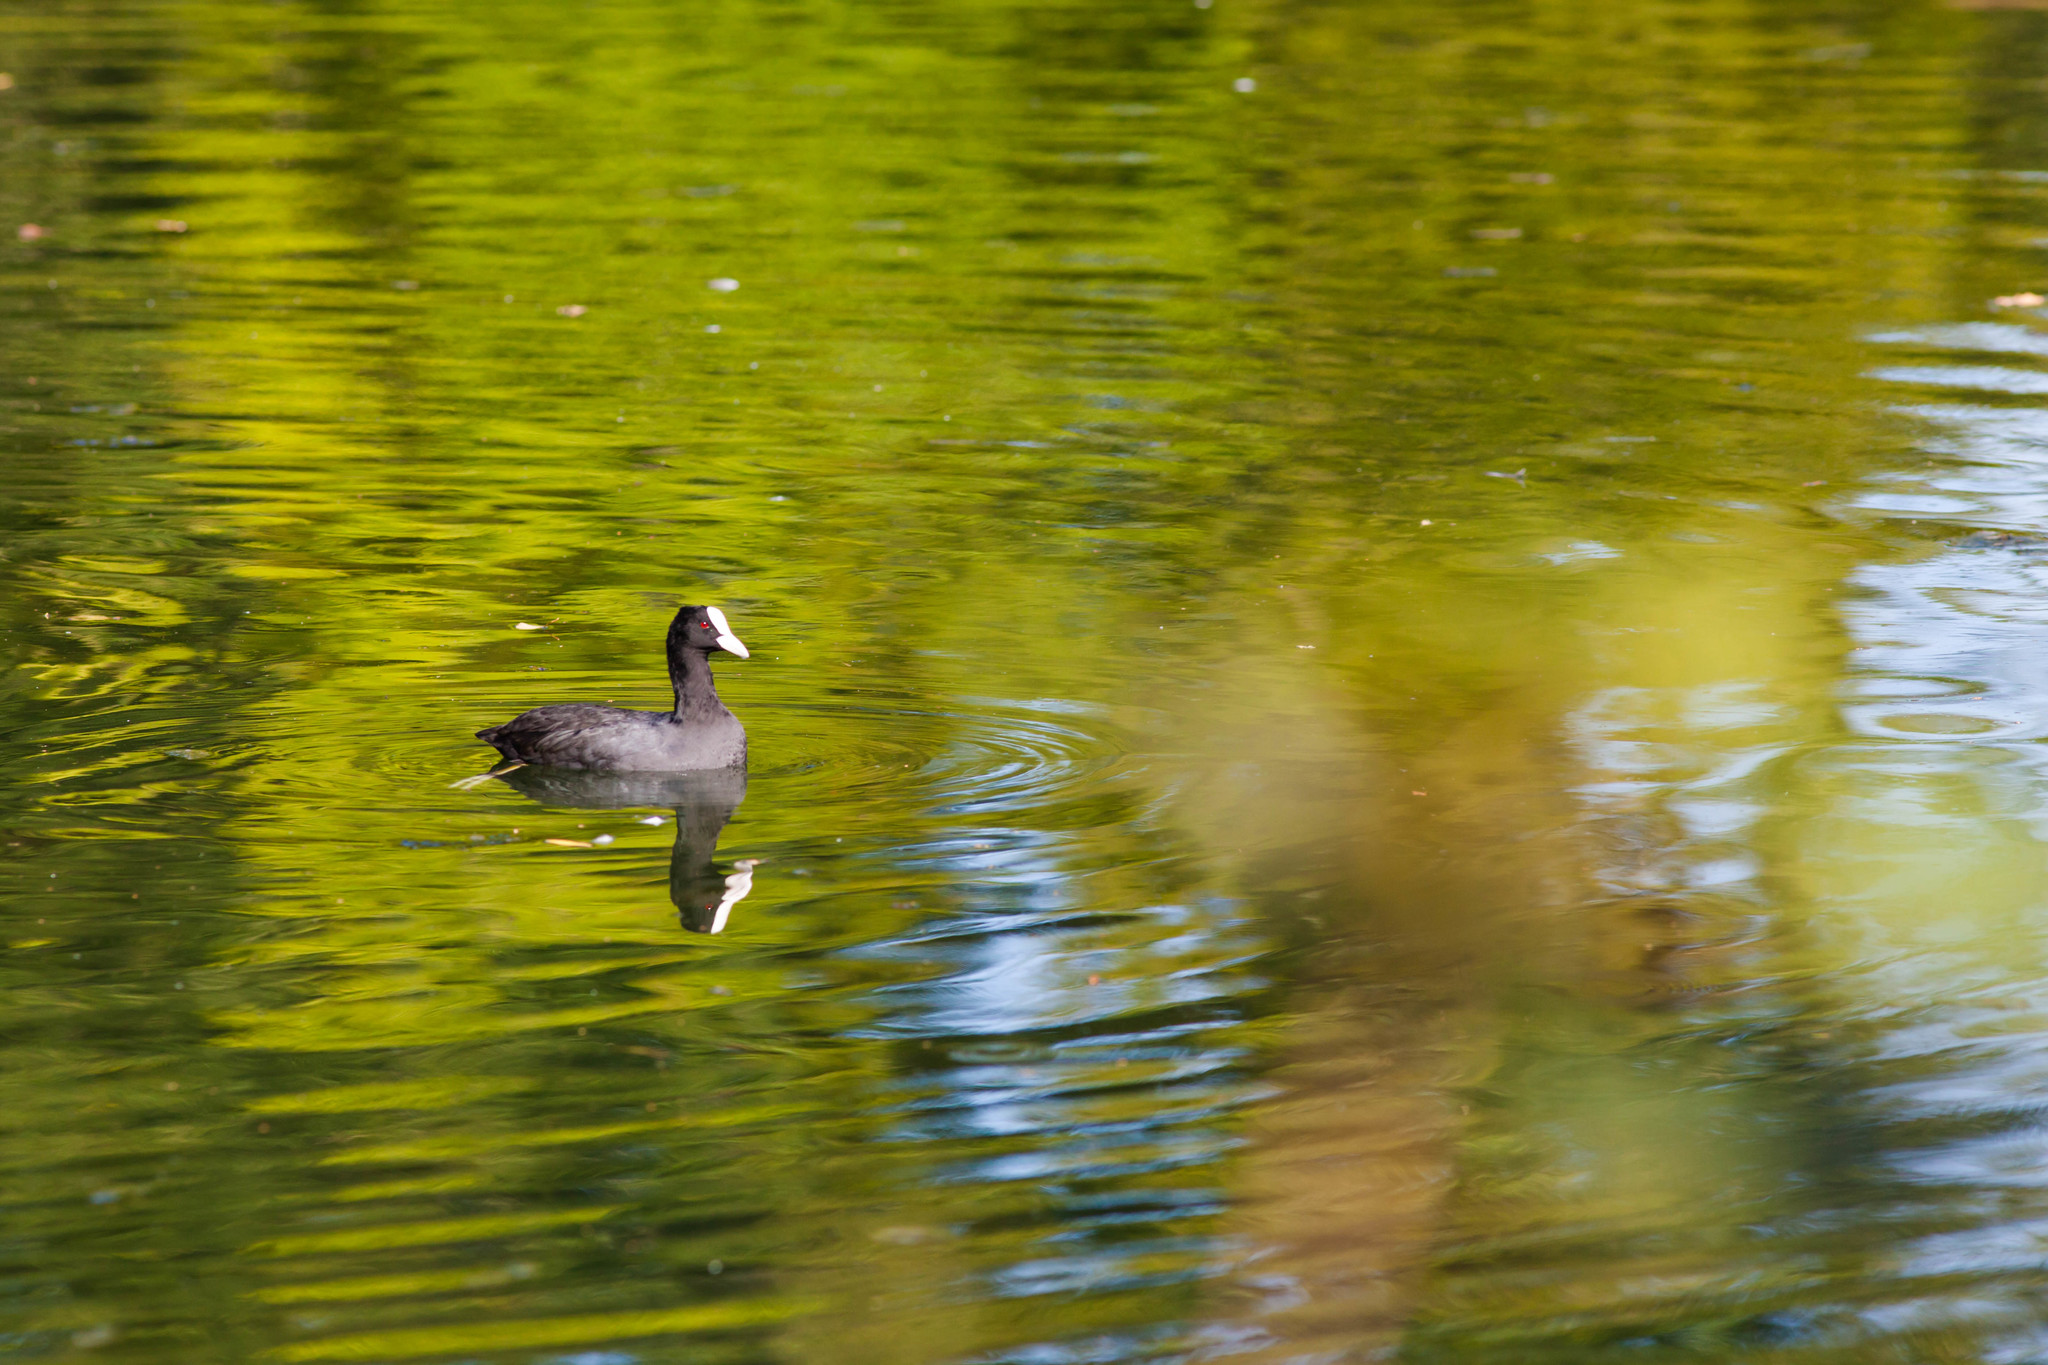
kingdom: Animalia
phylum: Chordata
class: Aves
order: Gruiformes
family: Rallidae
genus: Fulica
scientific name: Fulica atra
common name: Eurasian coot
